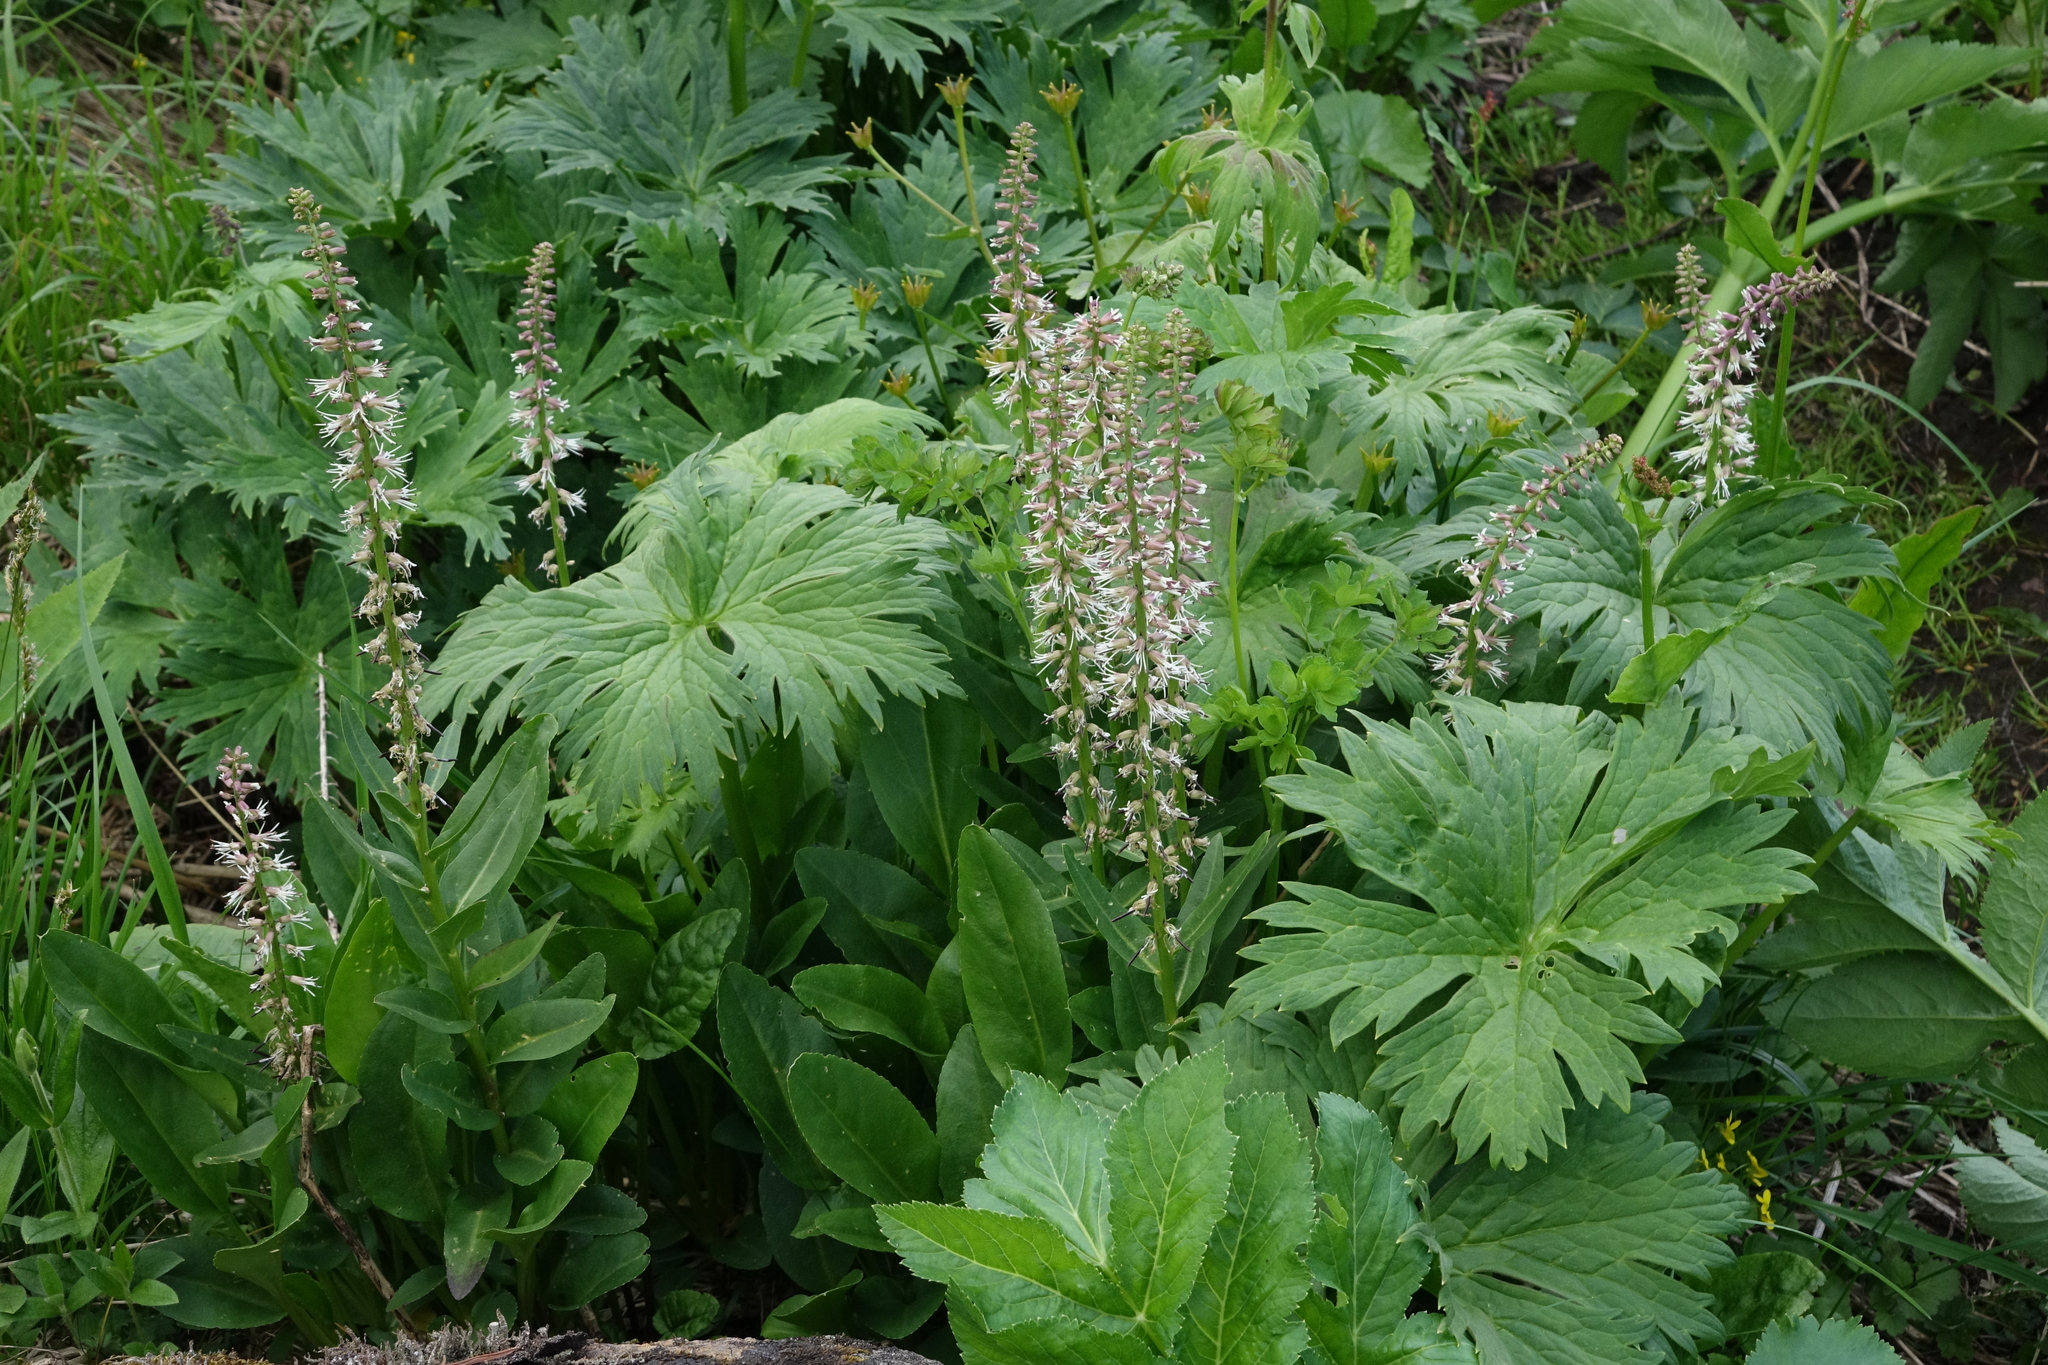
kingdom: Plantae
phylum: Tracheophyta
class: Magnoliopsida
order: Brassicales
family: Brassicaceae
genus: Macropodium
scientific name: Macropodium nivale
